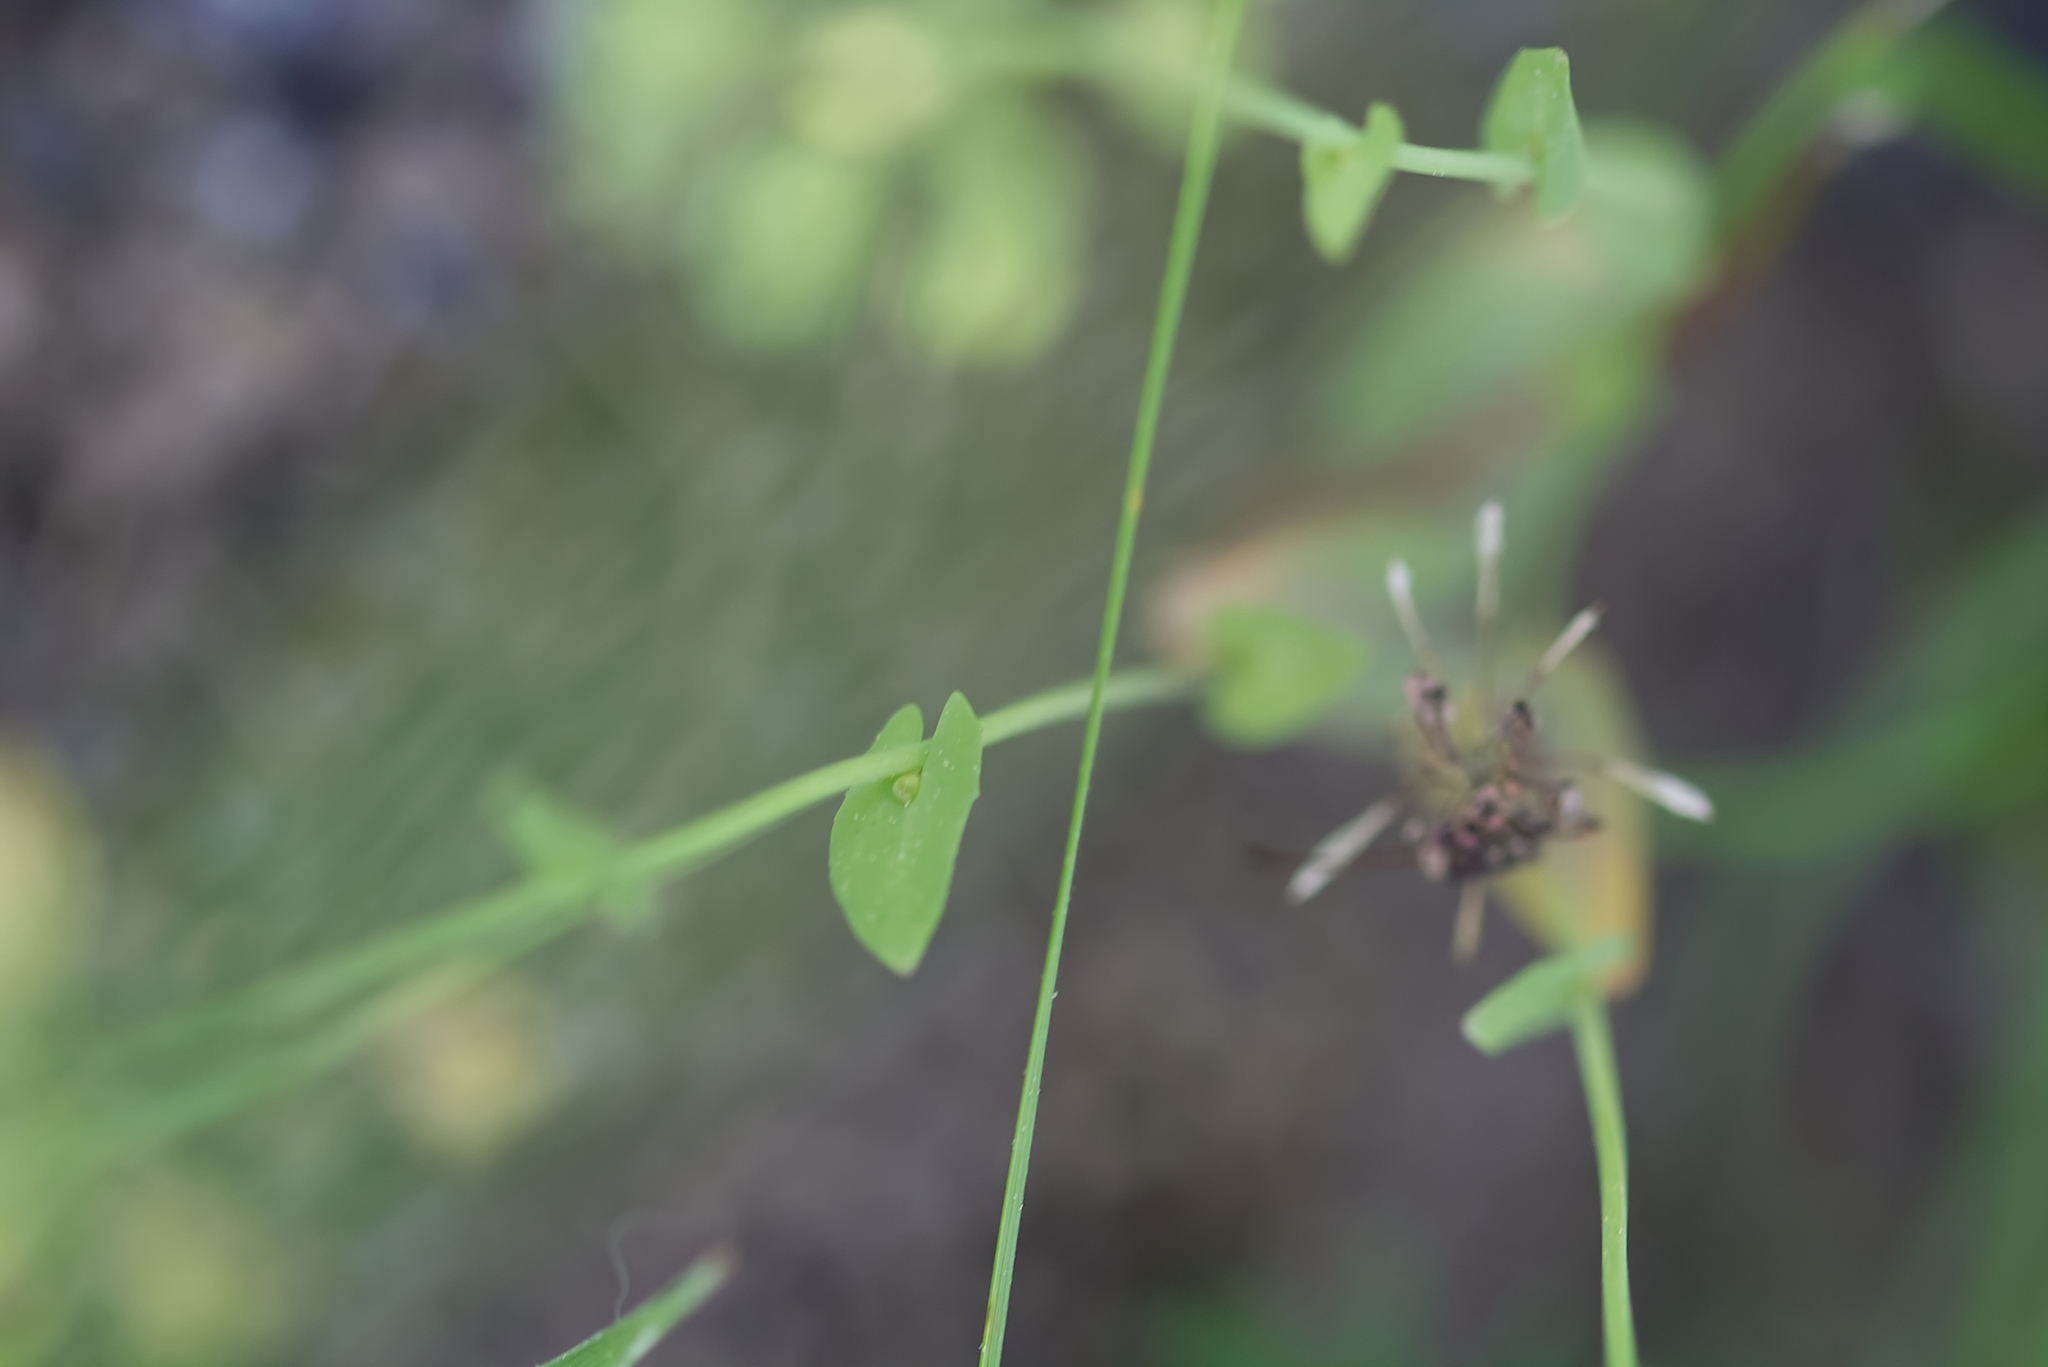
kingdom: Plantae
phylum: Tracheophyta
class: Magnoliopsida
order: Brassicales
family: Brassicaceae
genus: Noccaea
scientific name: Noccaea perfoliata
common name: Perfoliate pennycress
